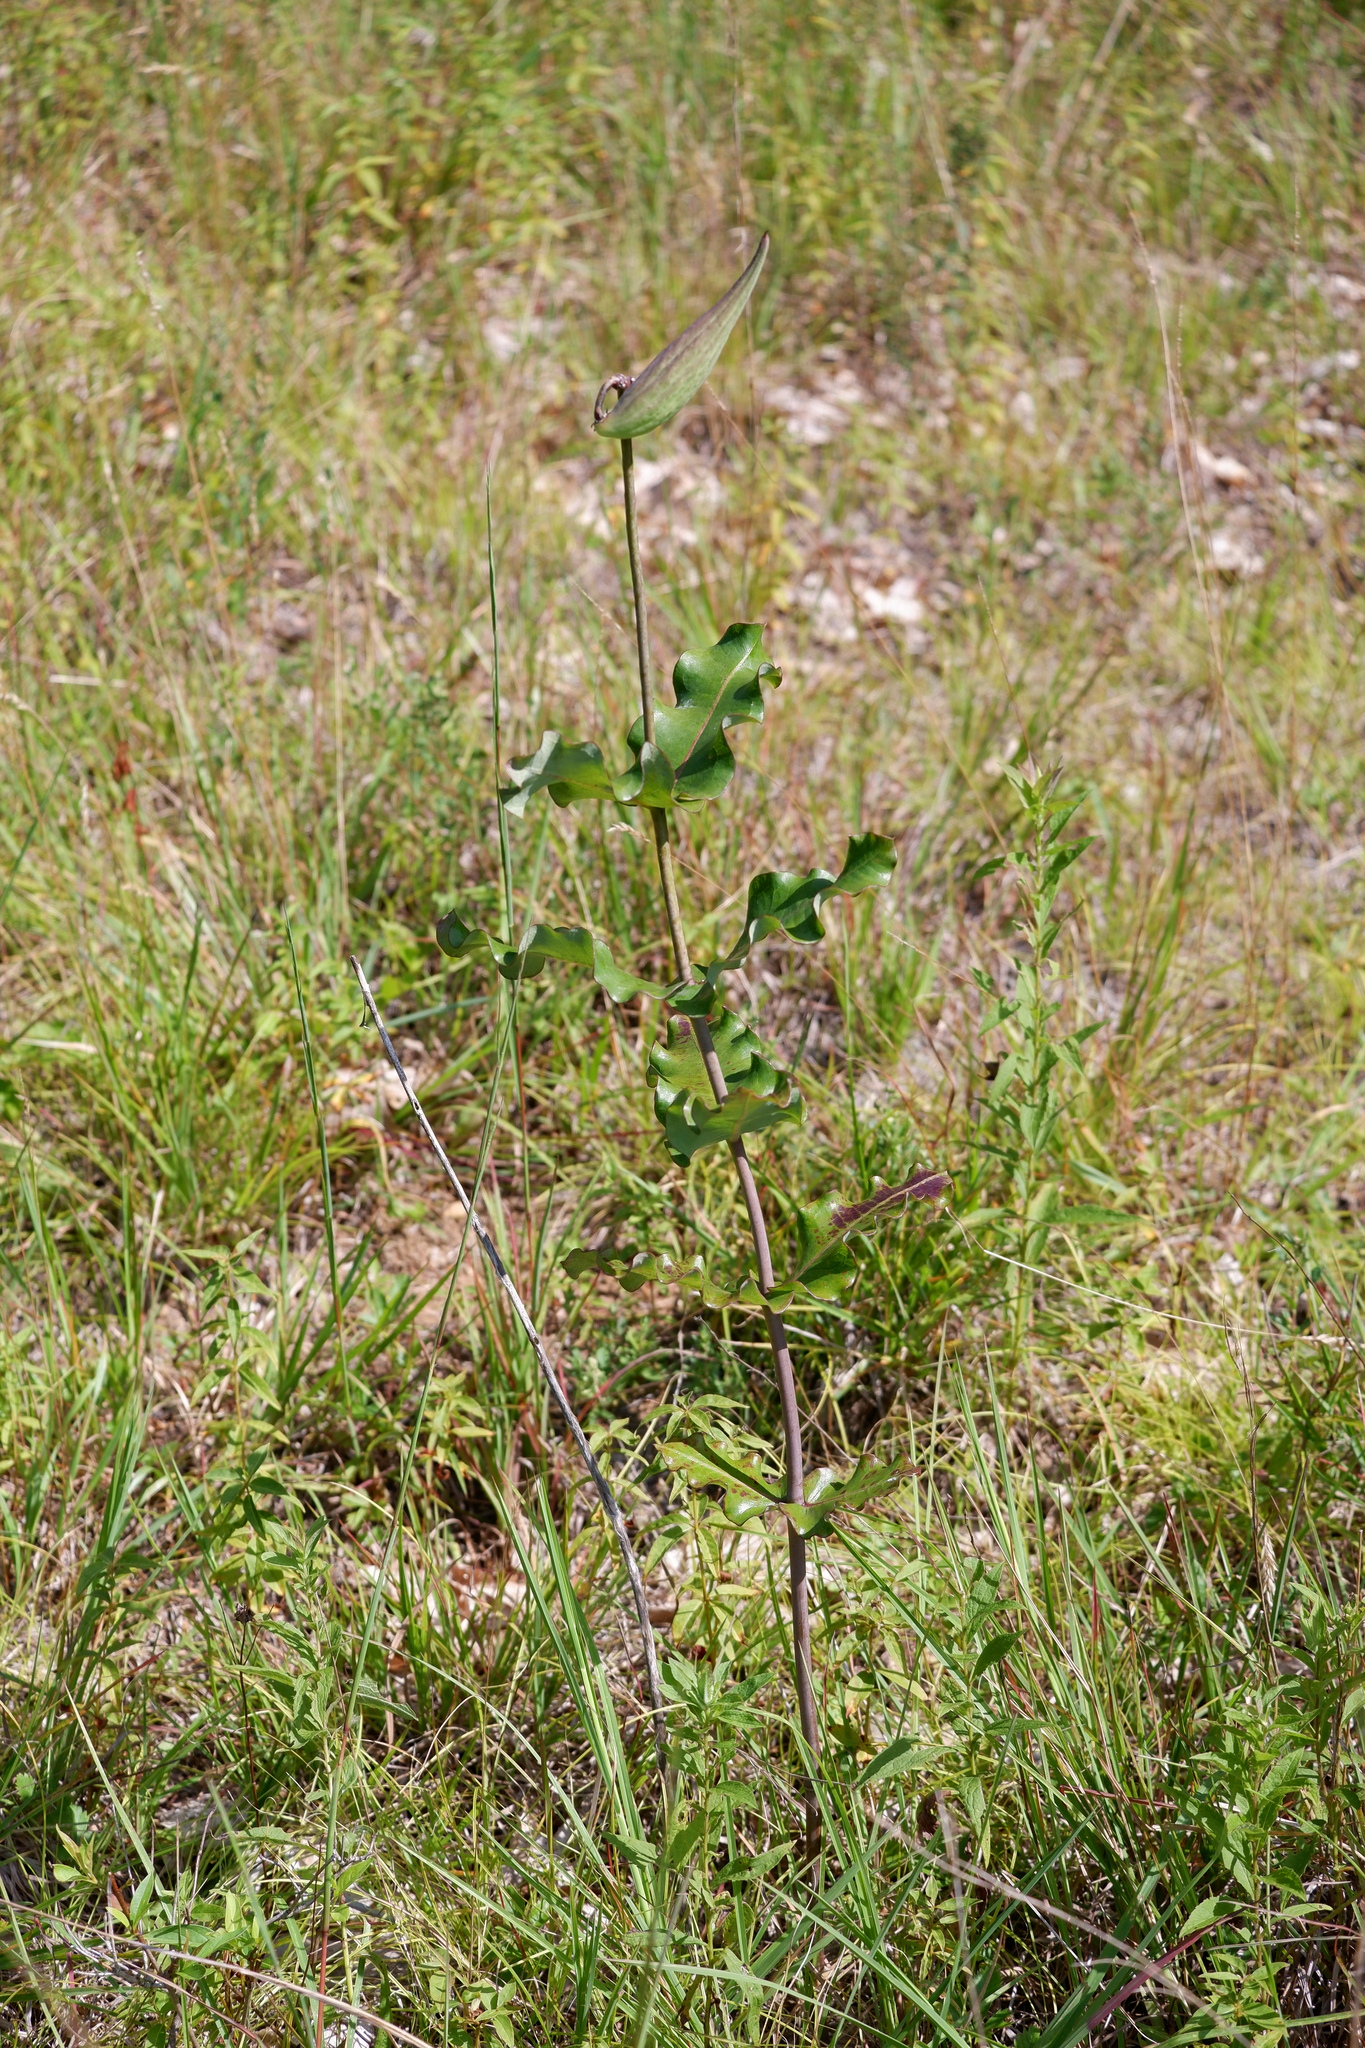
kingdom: Plantae
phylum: Tracheophyta
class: Magnoliopsida
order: Gentianales
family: Apocynaceae
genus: Asclepias
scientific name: Asclepias amplexicaulis
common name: Blunt-leaf milkweed
